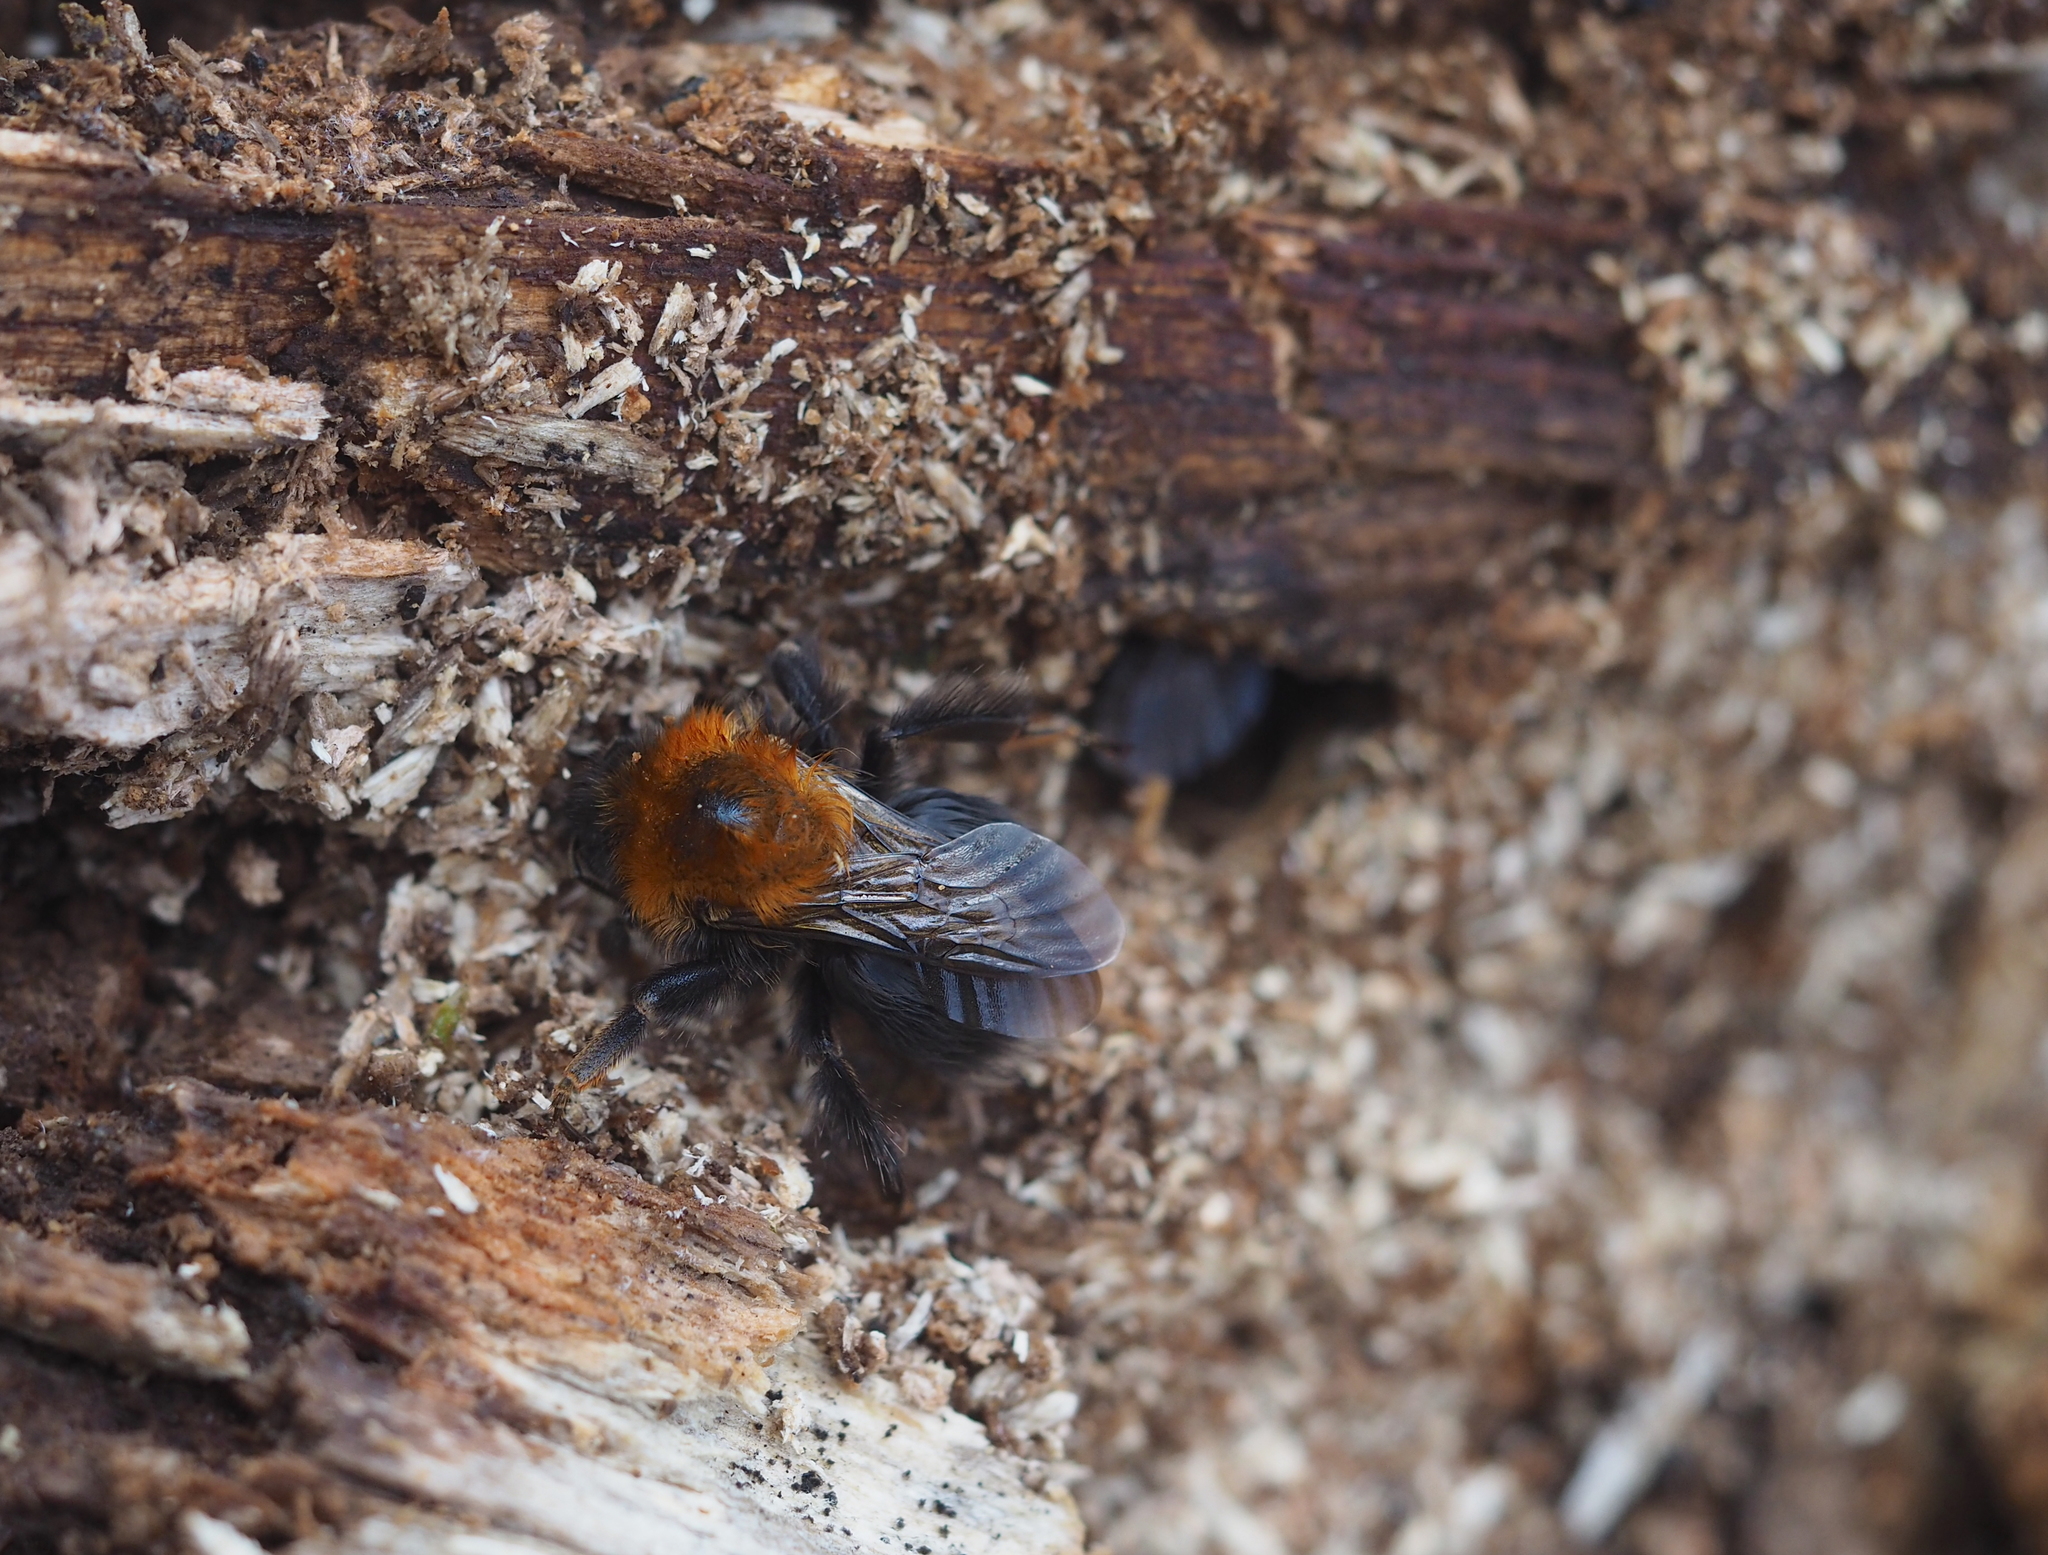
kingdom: Animalia
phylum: Arthropoda
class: Insecta
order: Hymenoptera
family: Apidae
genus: Bombus
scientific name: Bombus hypnorum
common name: New garden bumblebee
